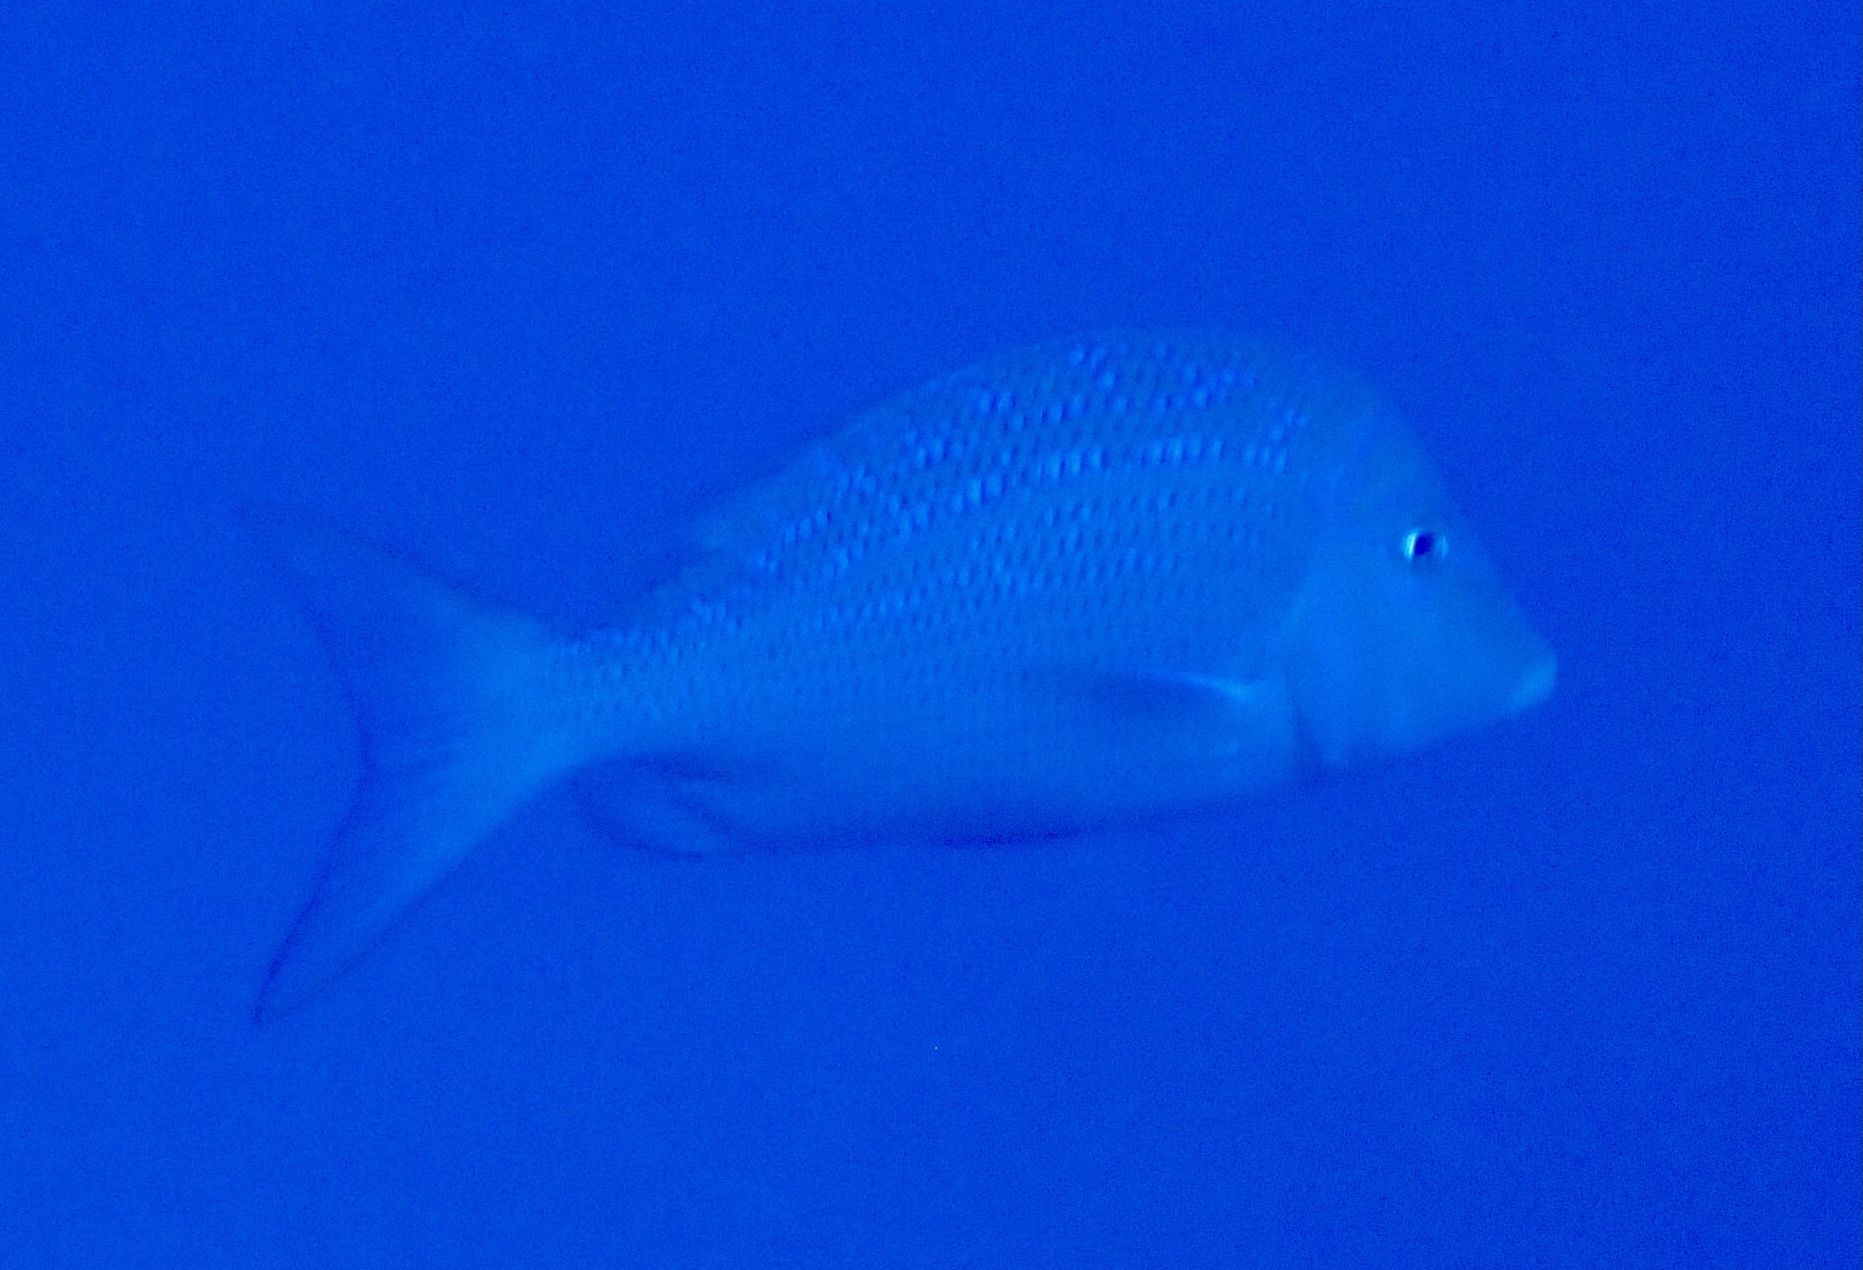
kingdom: Animalia
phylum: Chordata
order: Perciformes
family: Lethrinidae
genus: Lethrinus
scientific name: Lethrinus nebulosus
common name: Spangled emperor
